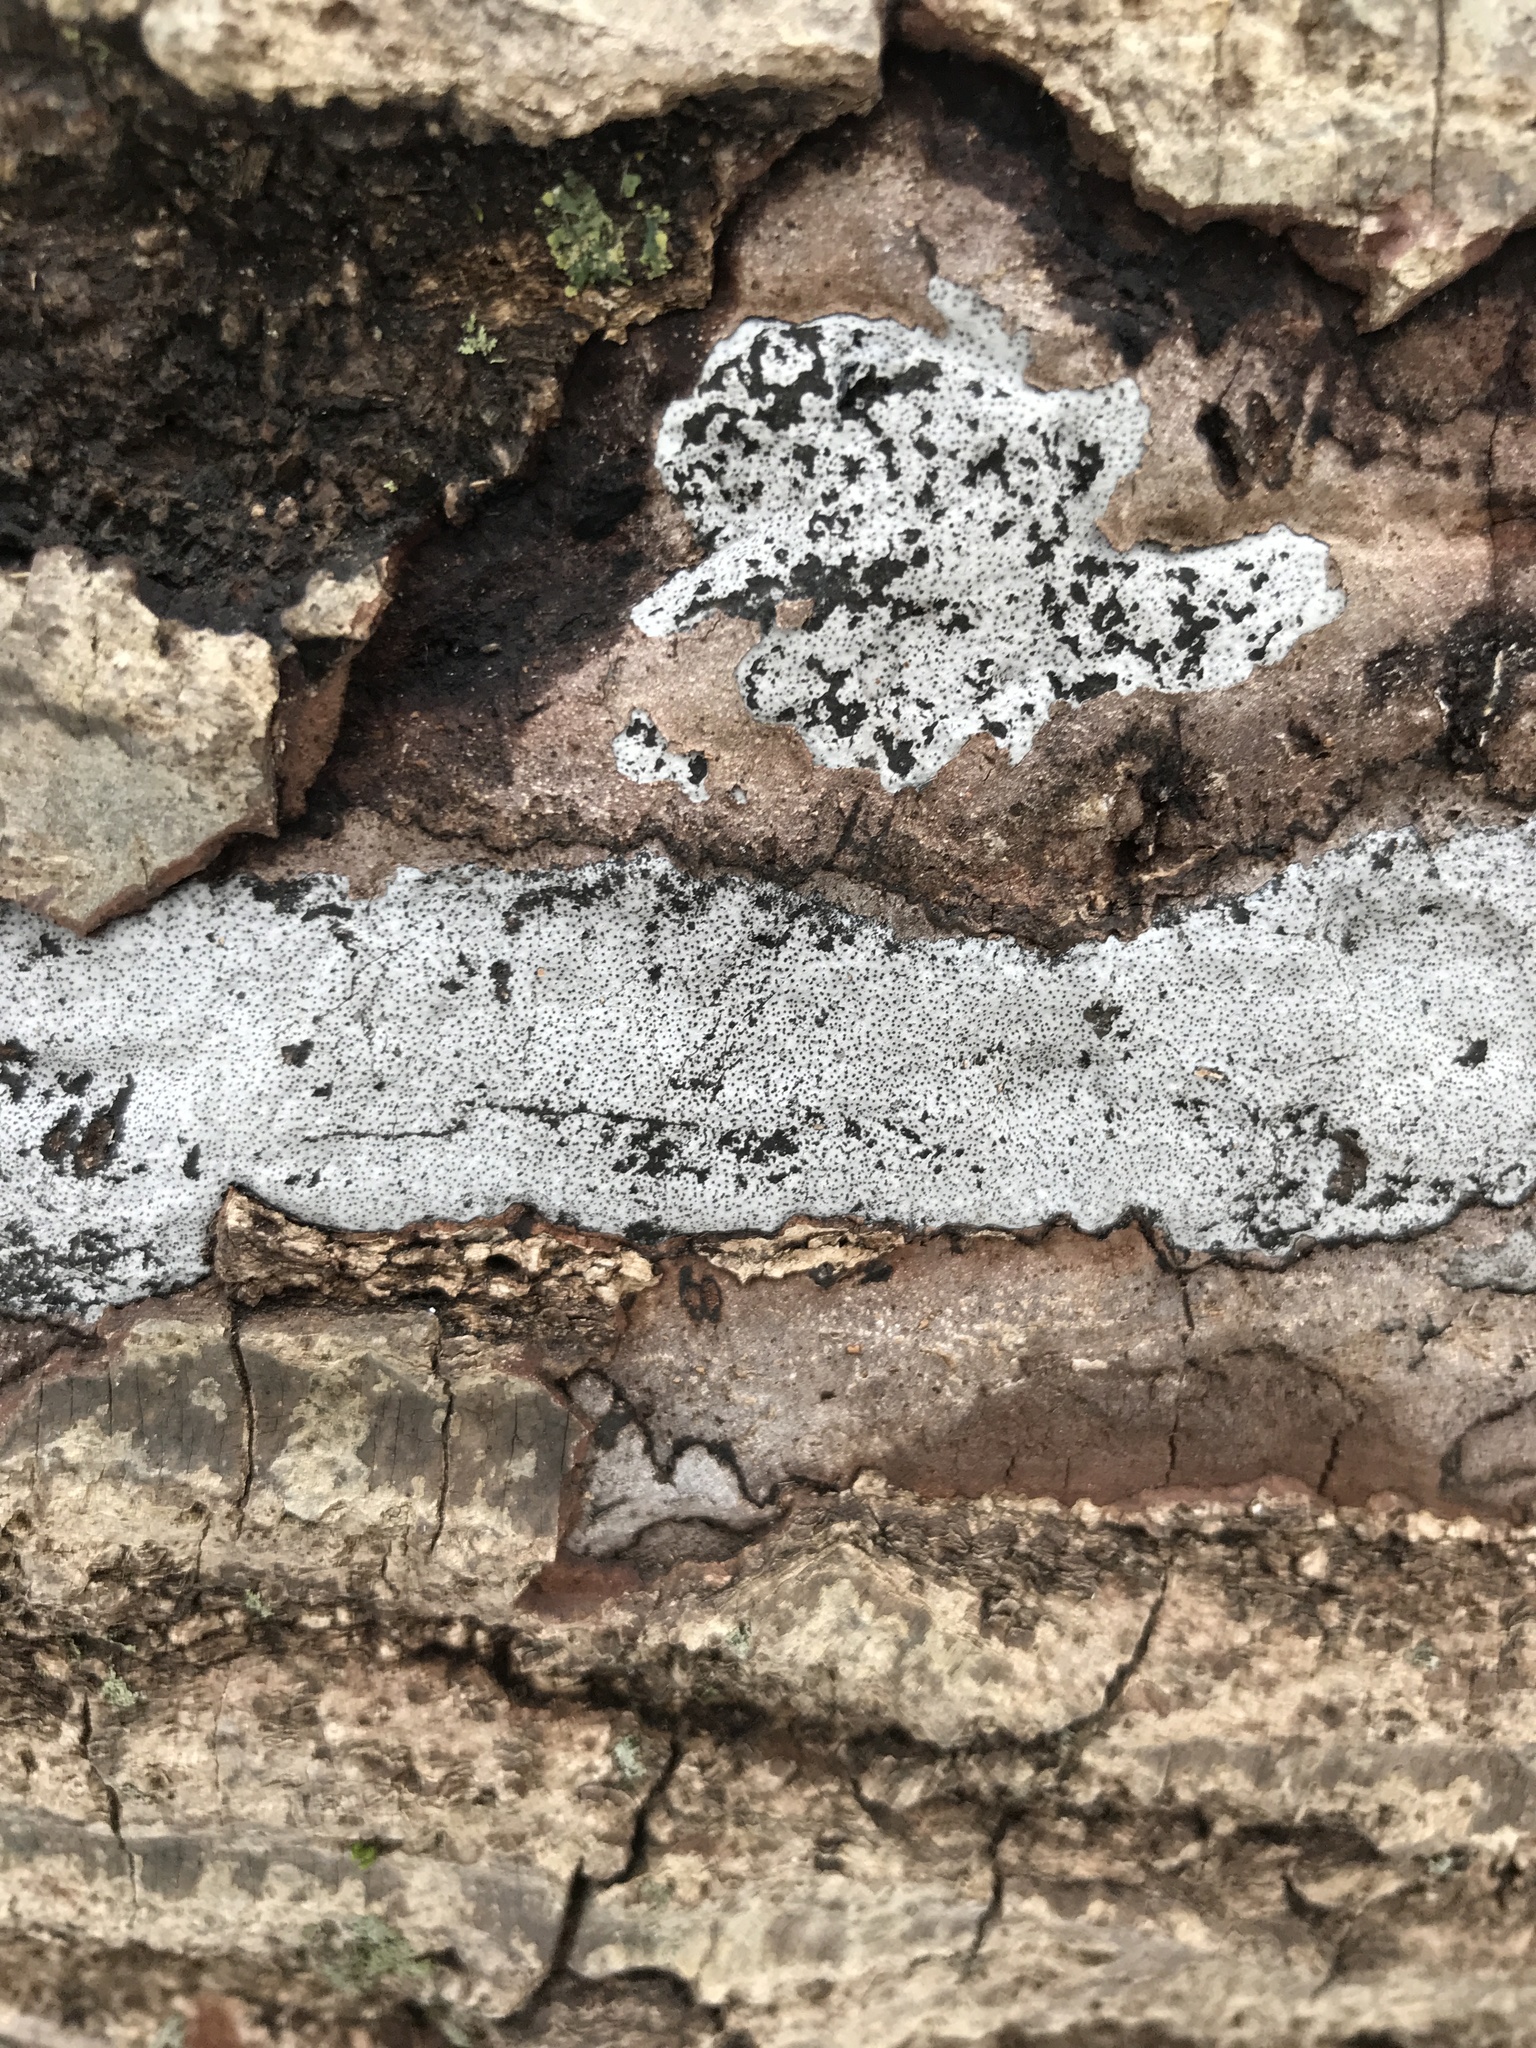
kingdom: Fungi
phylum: Ascomycota
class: Sordariomycetes
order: Xylariales
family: Graphostromataceae
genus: Biscogniauxia
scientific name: Biscogniauxia atropunctata
